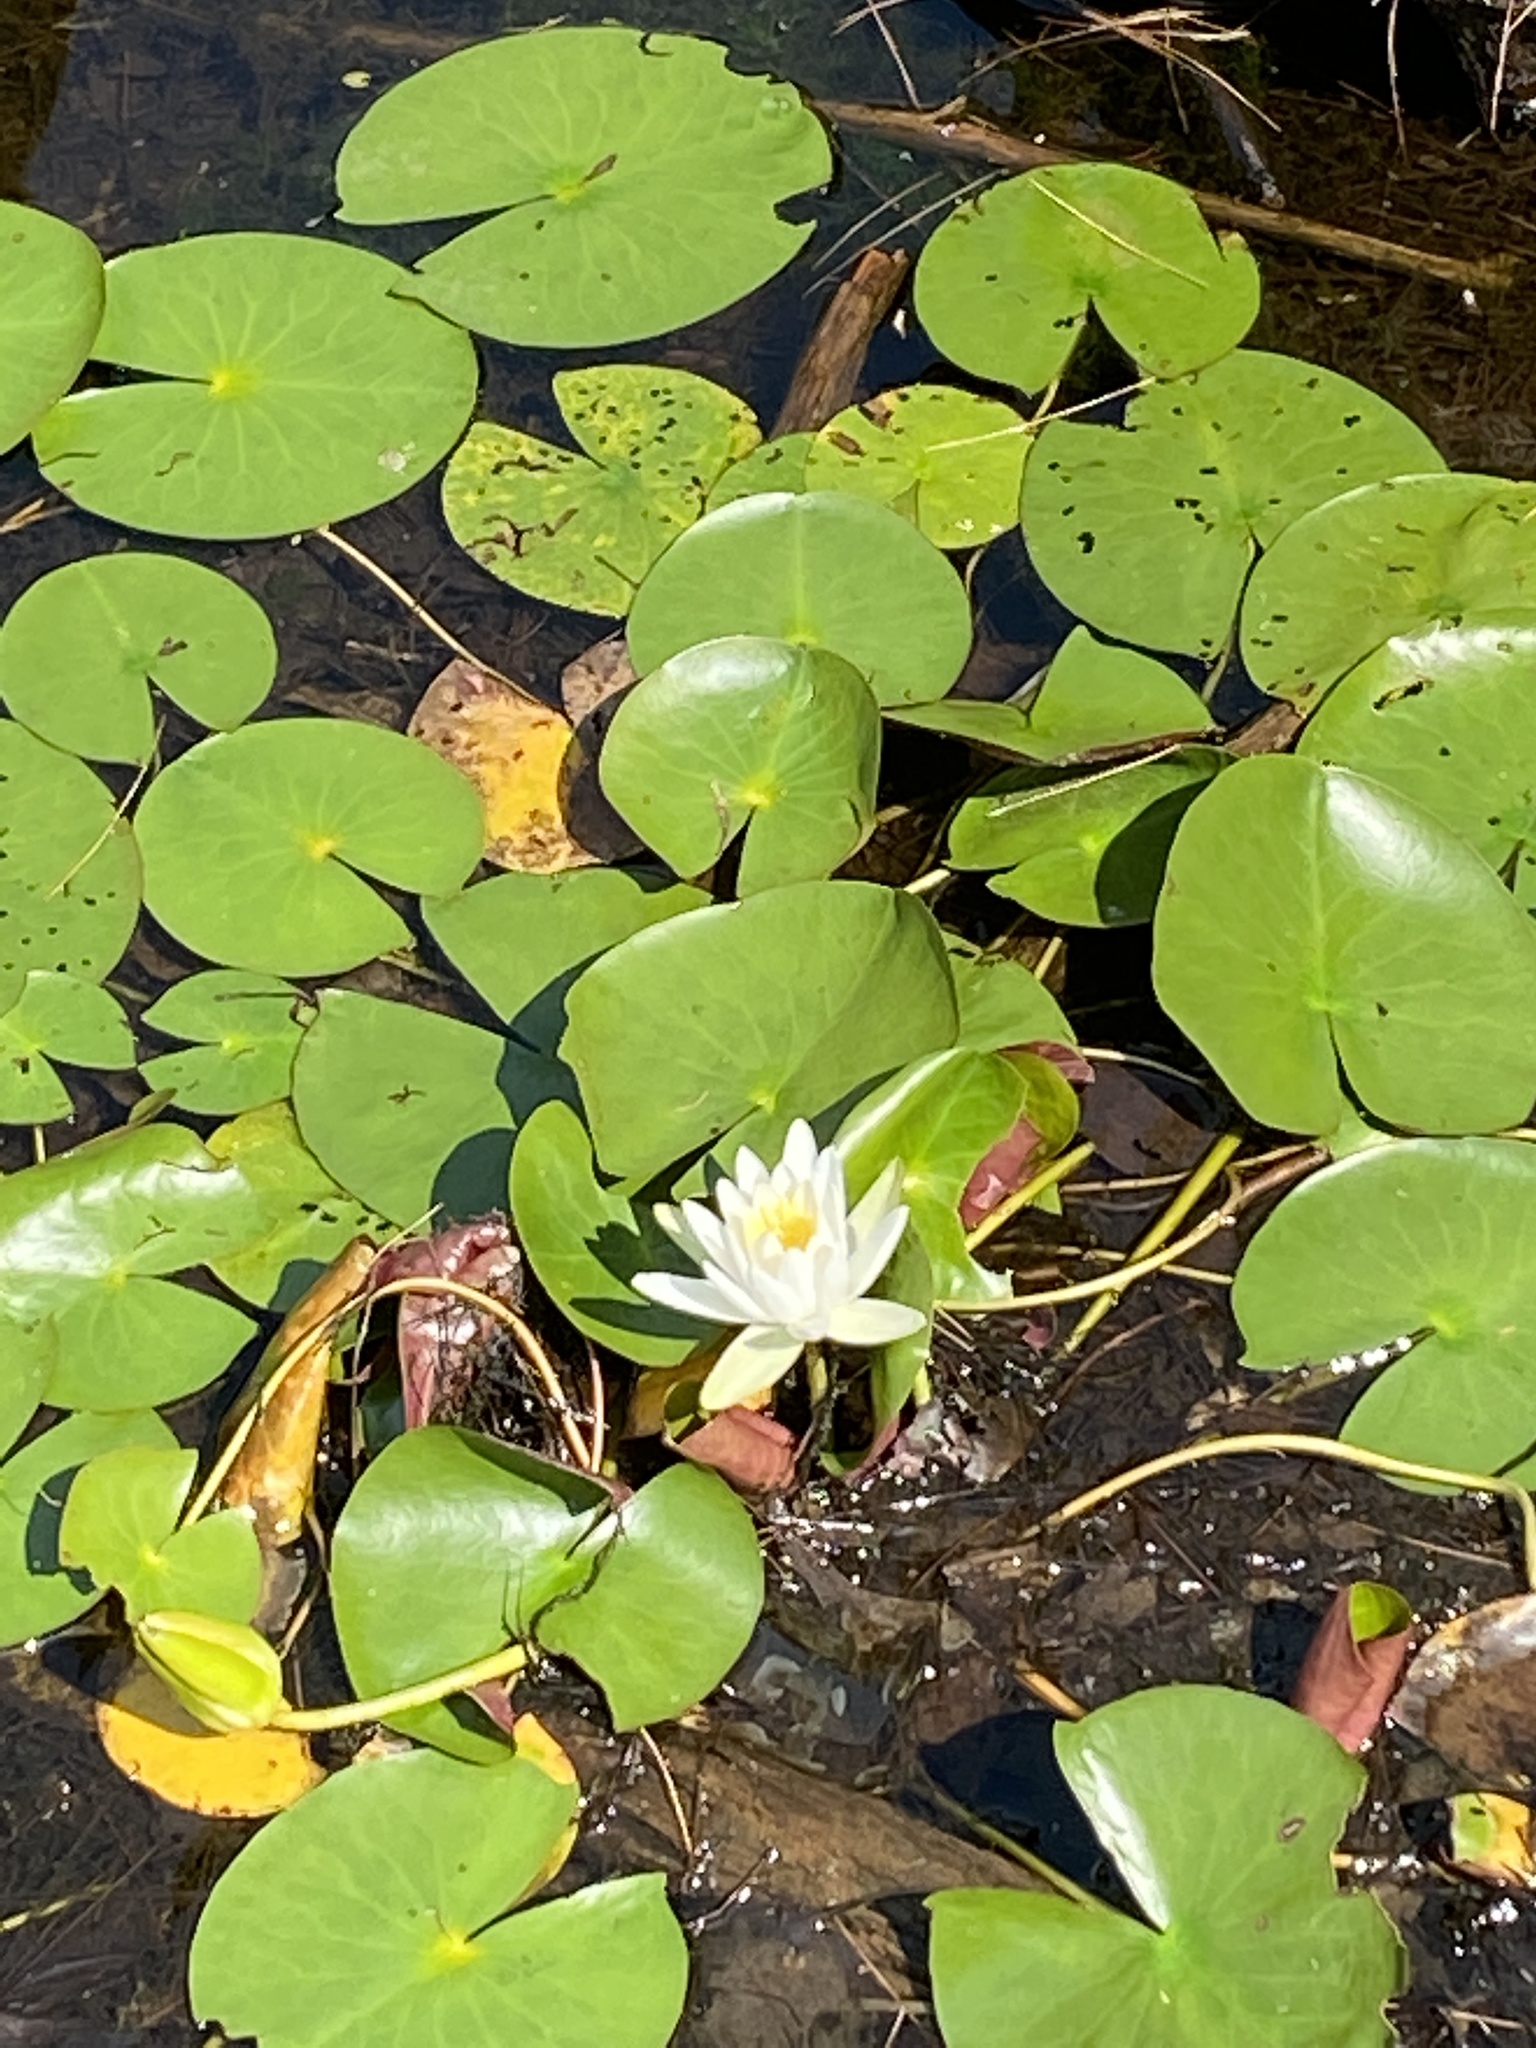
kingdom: Plantae
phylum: Tracheophyta
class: Magnoliopsida
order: Nymphaeales
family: Nymphaeaceae
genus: Nymphaea
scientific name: Nymphaea odorata
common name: Fragrant water-lily
